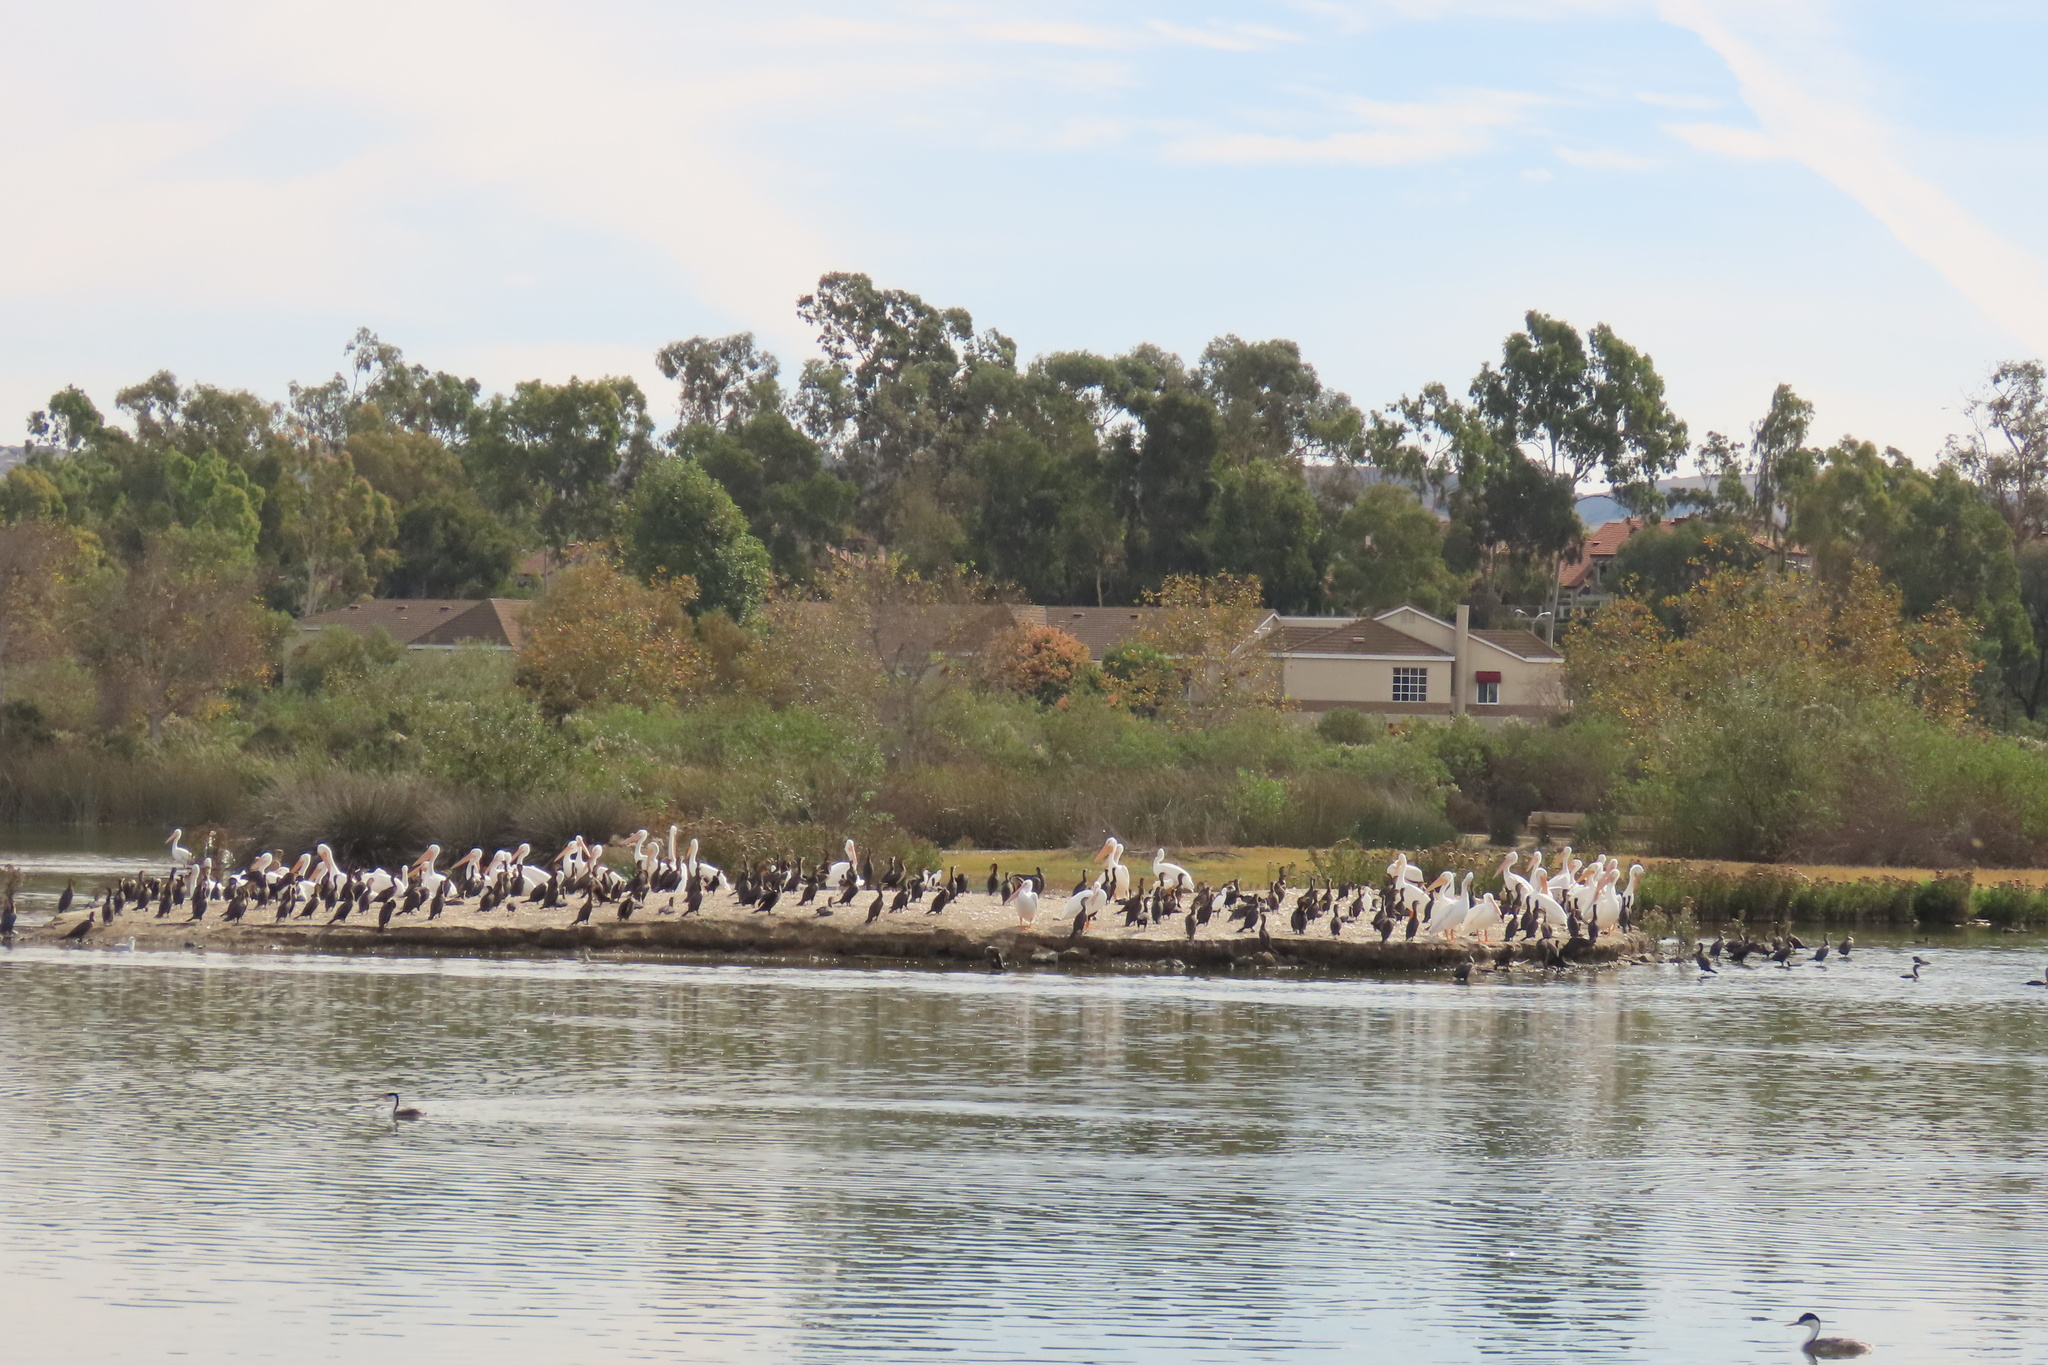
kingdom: Animalia
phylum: Chordata
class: Aves
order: Pelecaniformes
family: Pelecanidae
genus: Pelecanus
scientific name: Pelecanus erythrorhynchos
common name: American white pelican
